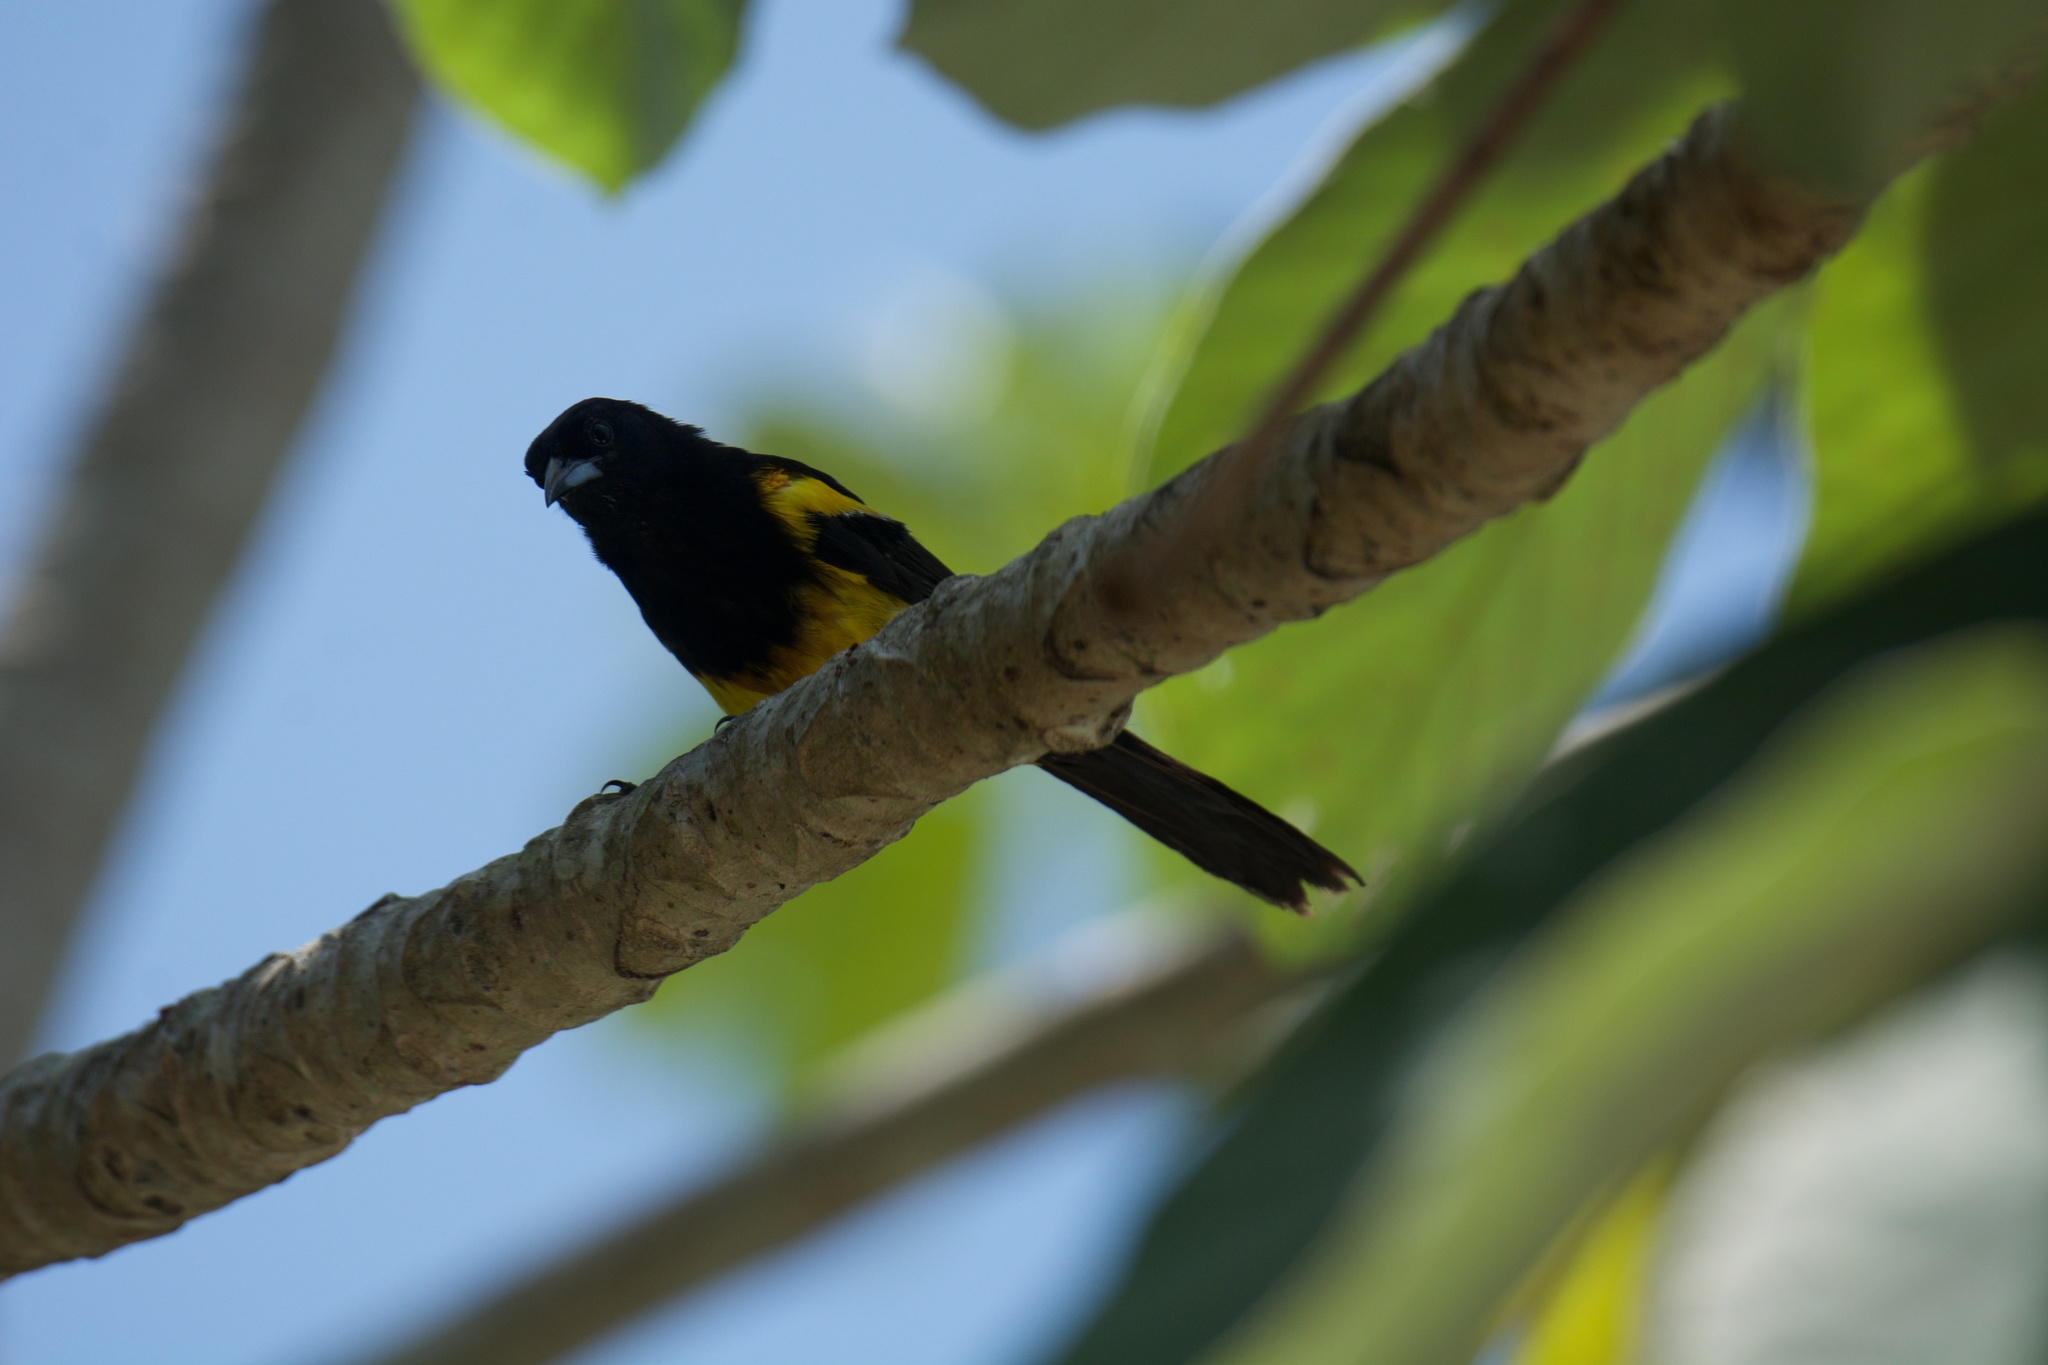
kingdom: Animalia
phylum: Chordata
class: Aves
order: Passeriformes
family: Icteridae
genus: Icterus
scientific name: Icterus prosthemelas
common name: Black-cowled oriole
